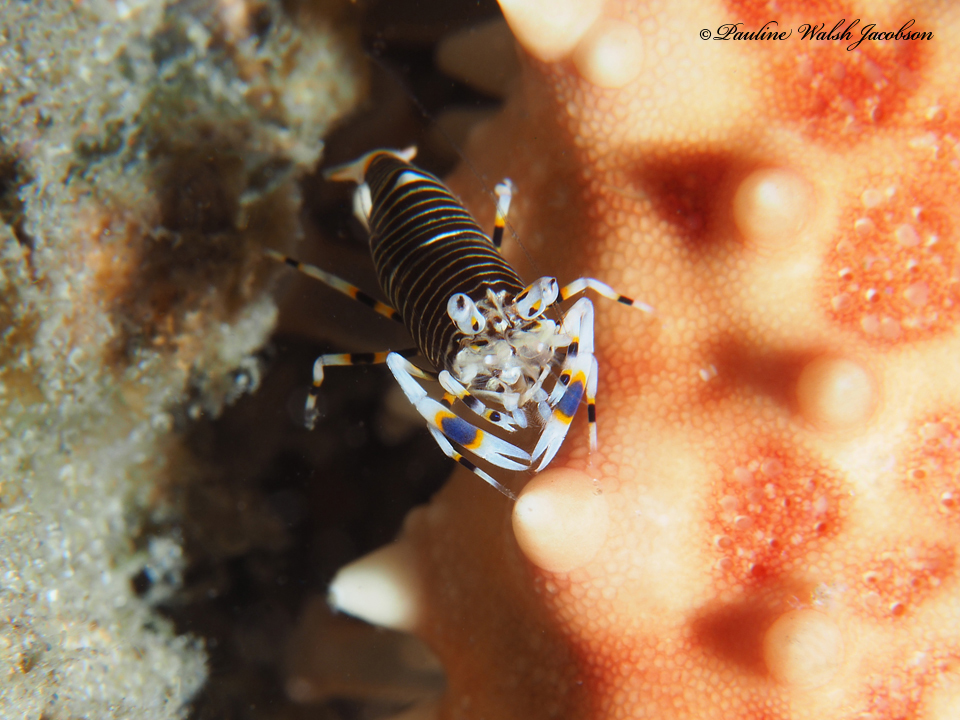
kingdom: Animalia
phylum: Arthropoda
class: Malacostraca
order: Decapoda
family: Palaemonidae
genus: Gnathophyllum
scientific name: Gnathophyllum americanum
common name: Bumblebee shrimp
